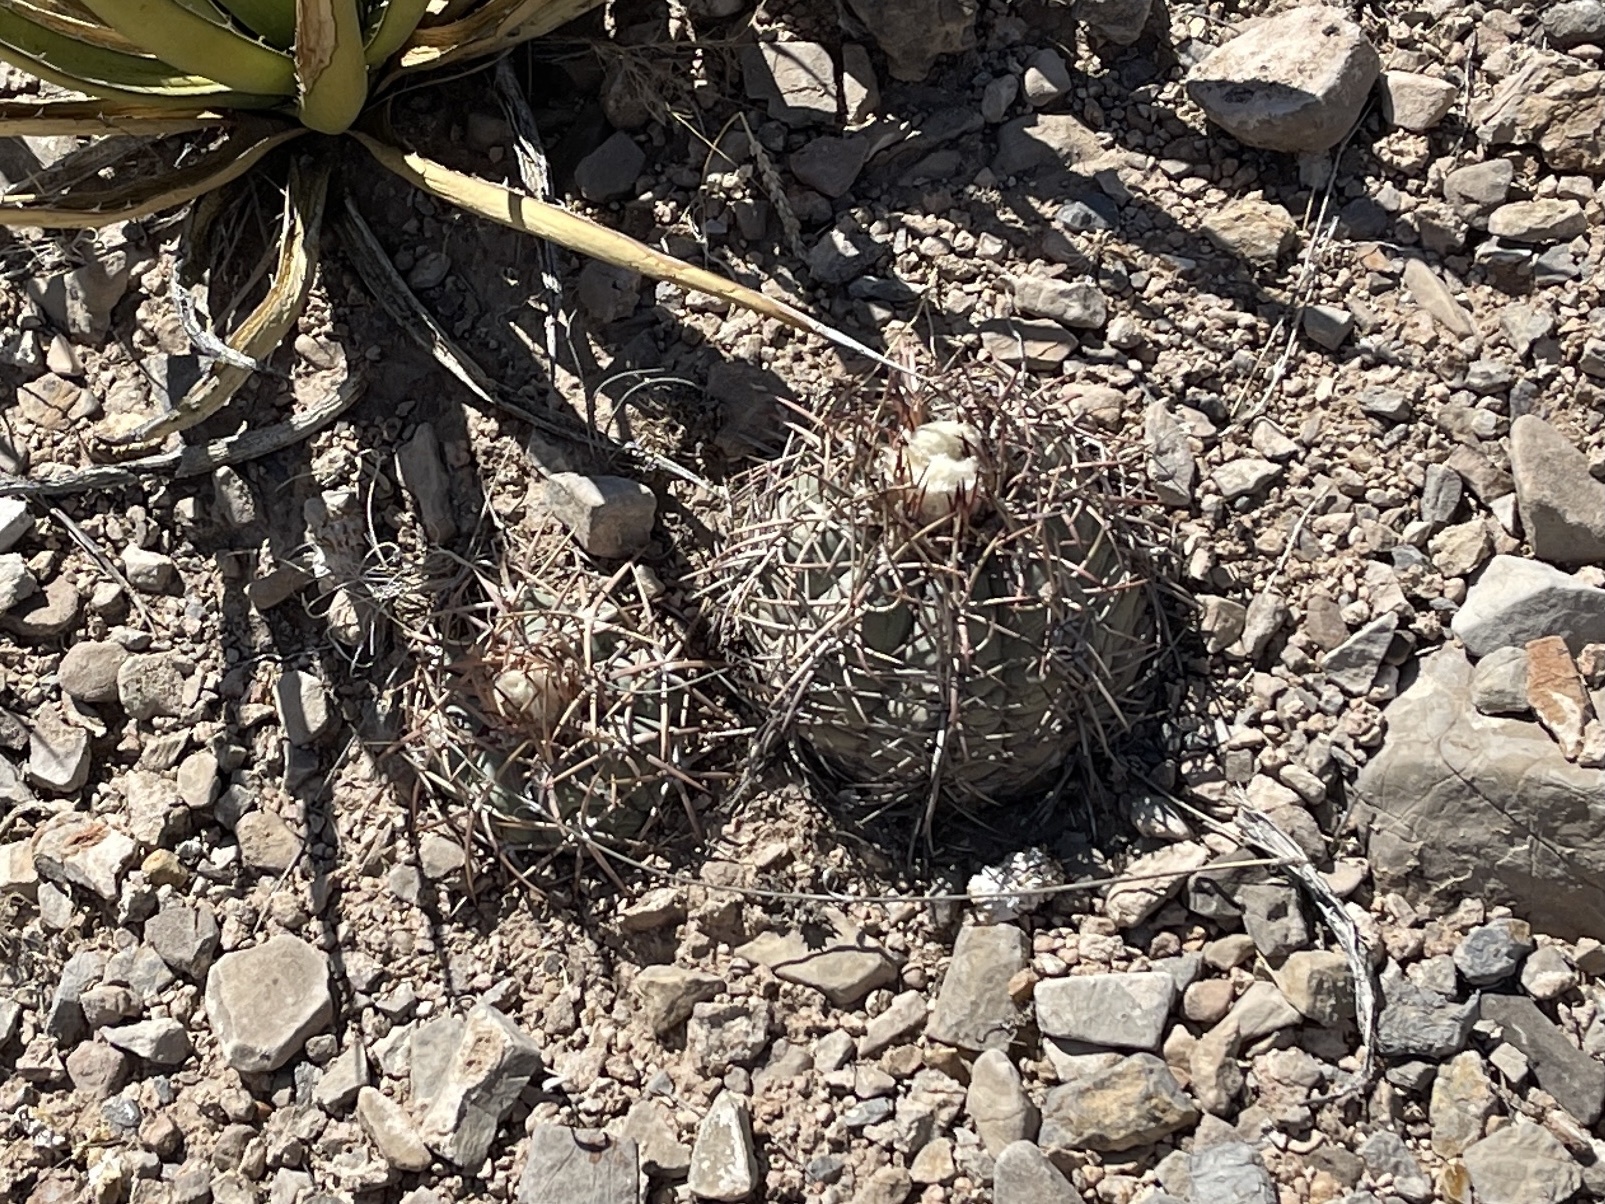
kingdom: Plantae
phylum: Tracheophyta
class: Magnoliopsida
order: Caryophyllales
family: Cactaceae
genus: Echinocactus
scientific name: Echinocactus horizonthalonius
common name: Devilshead
